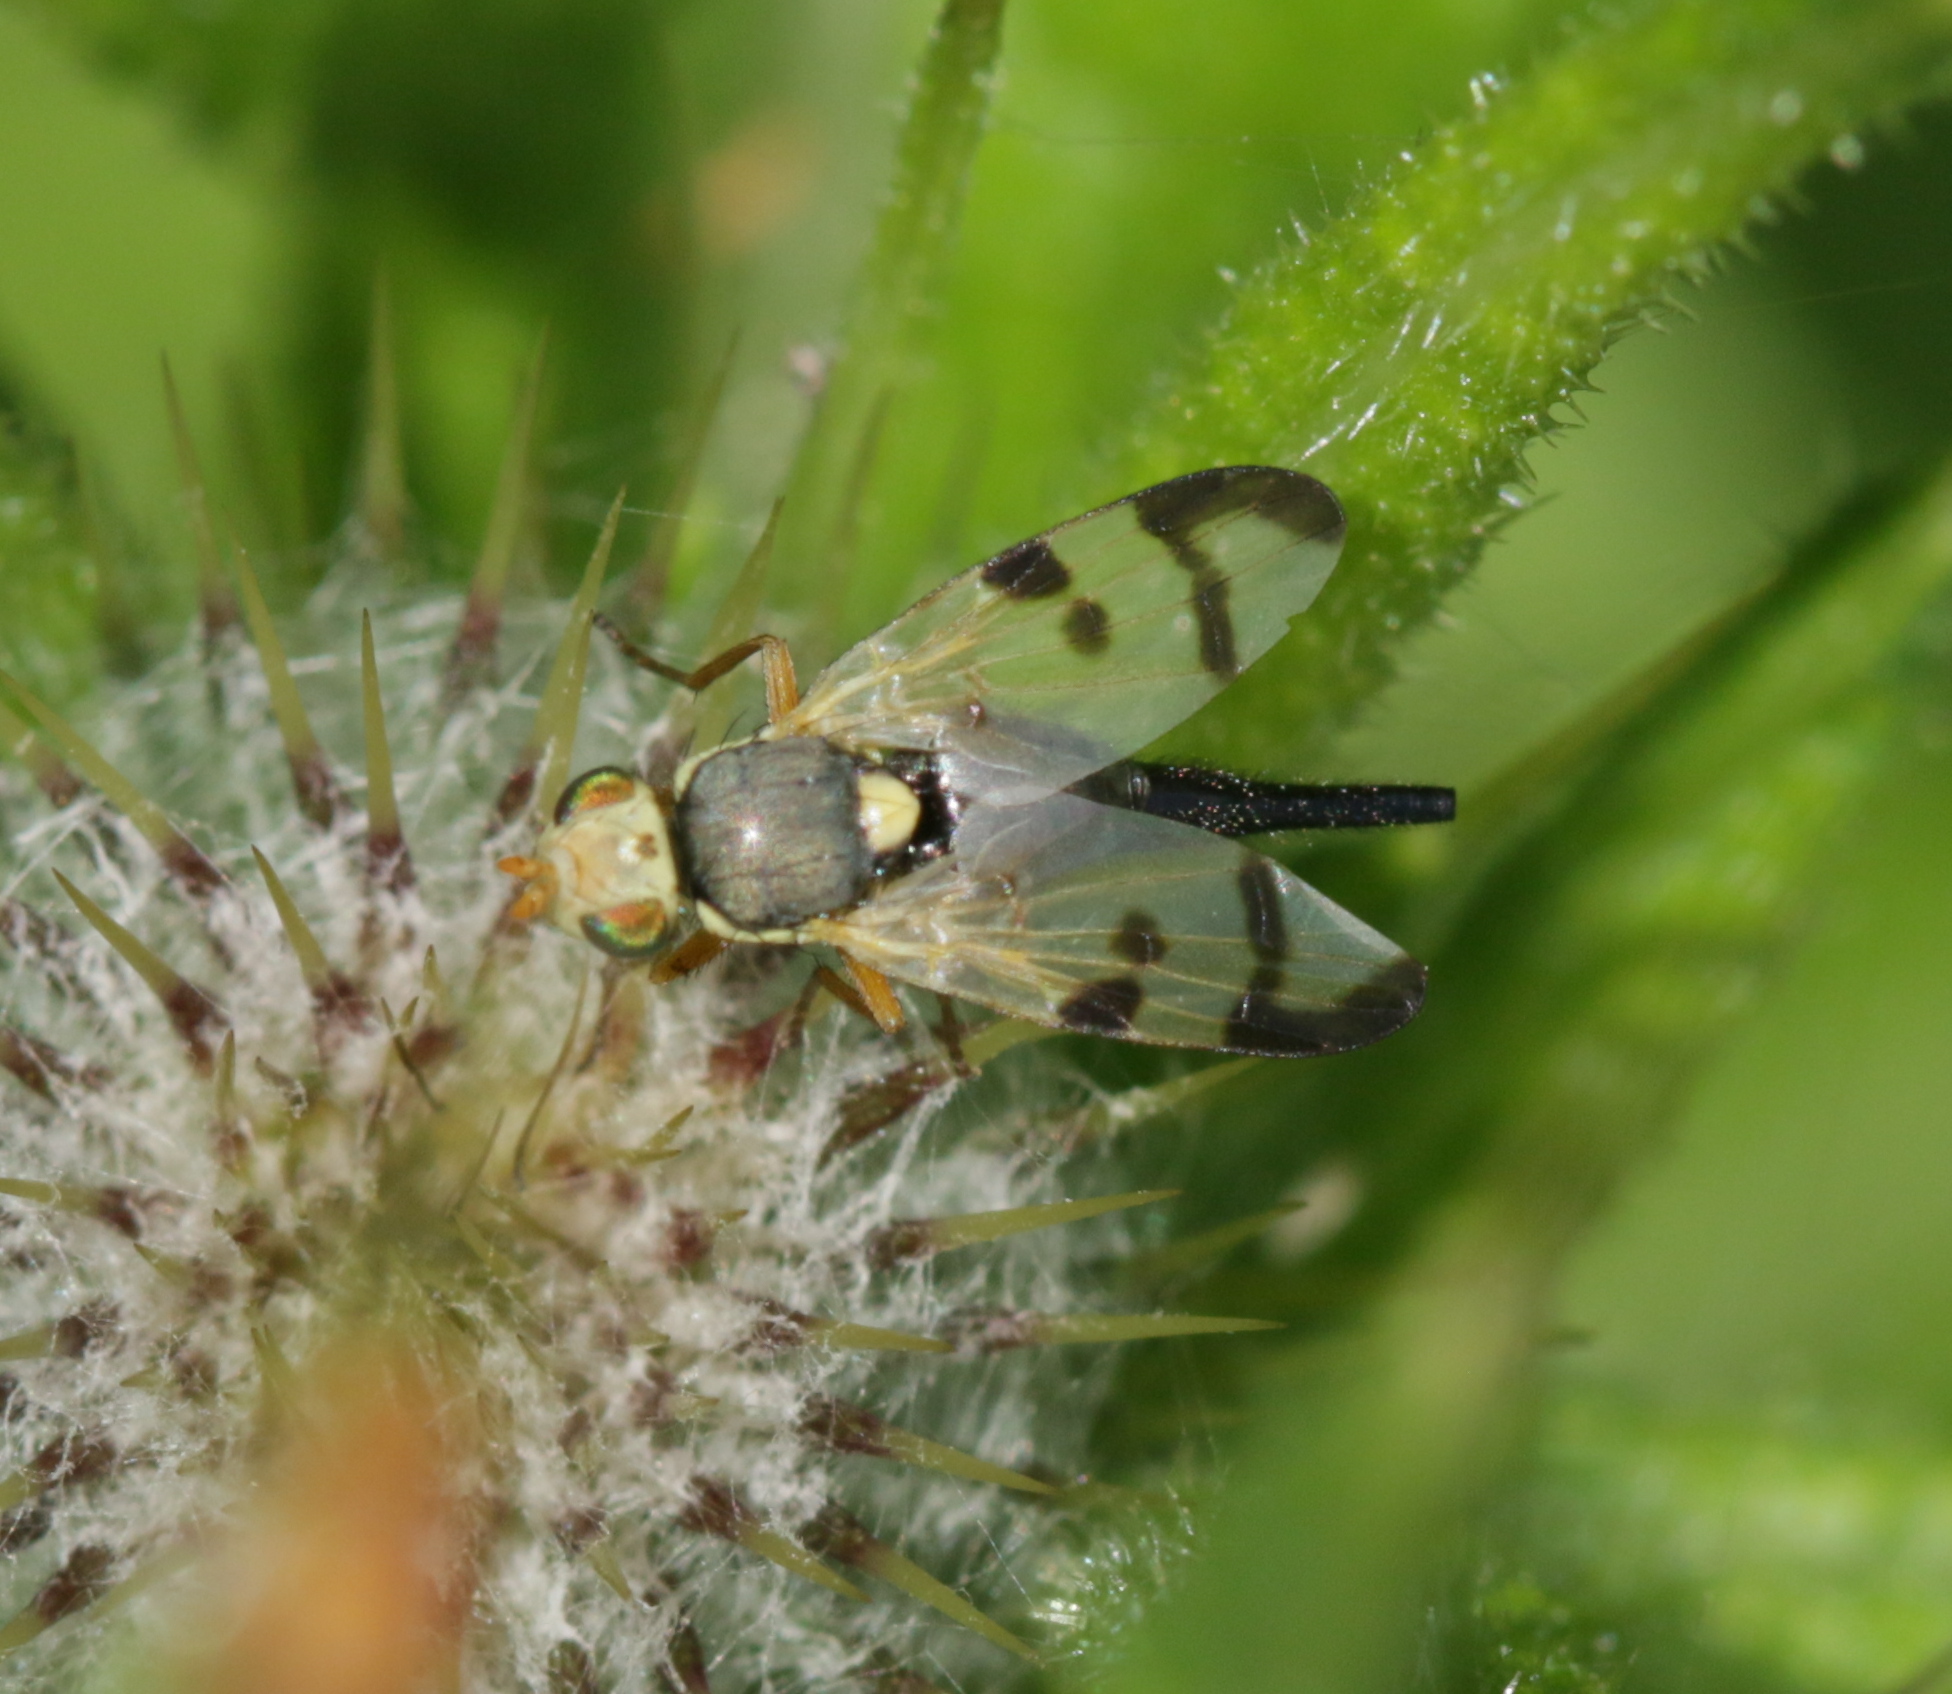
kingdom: Animalia
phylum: Arthropoda
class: Insecta
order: Diptera
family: Tephritidae
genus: Urophora
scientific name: Urophora stylata
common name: Fruit fly
